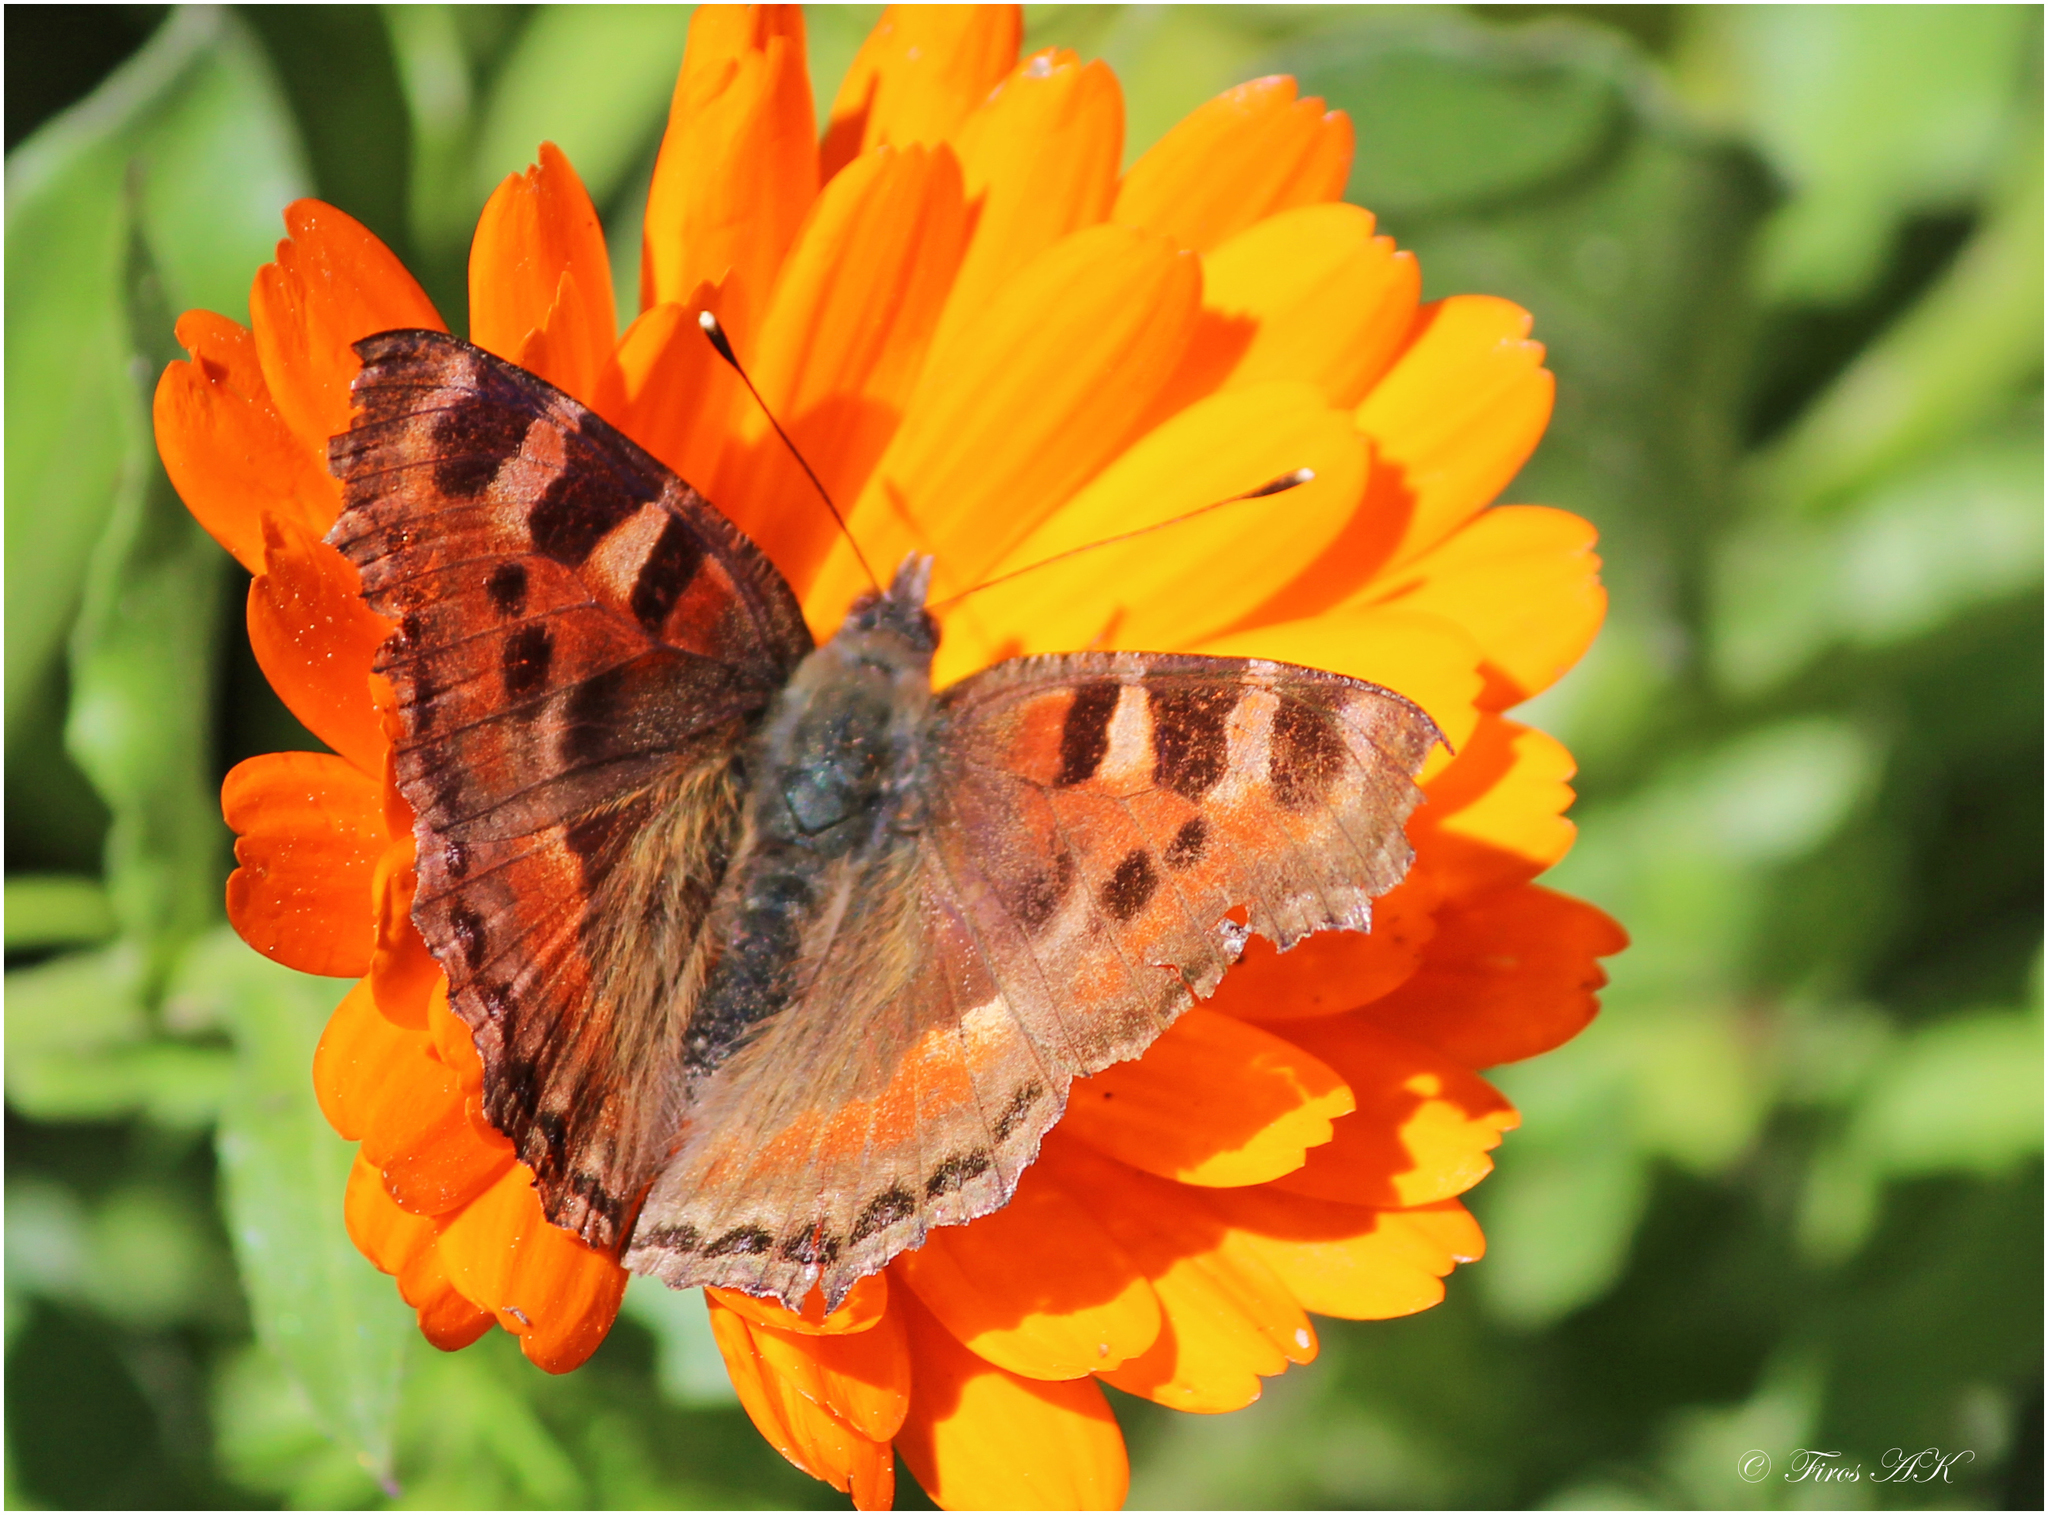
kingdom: Animalia
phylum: Arthropoda
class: Insecta
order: Lepidoptera
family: Nymphalidae
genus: Aglais
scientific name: Aglais caschmirensis
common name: Indian tortoiseshell
